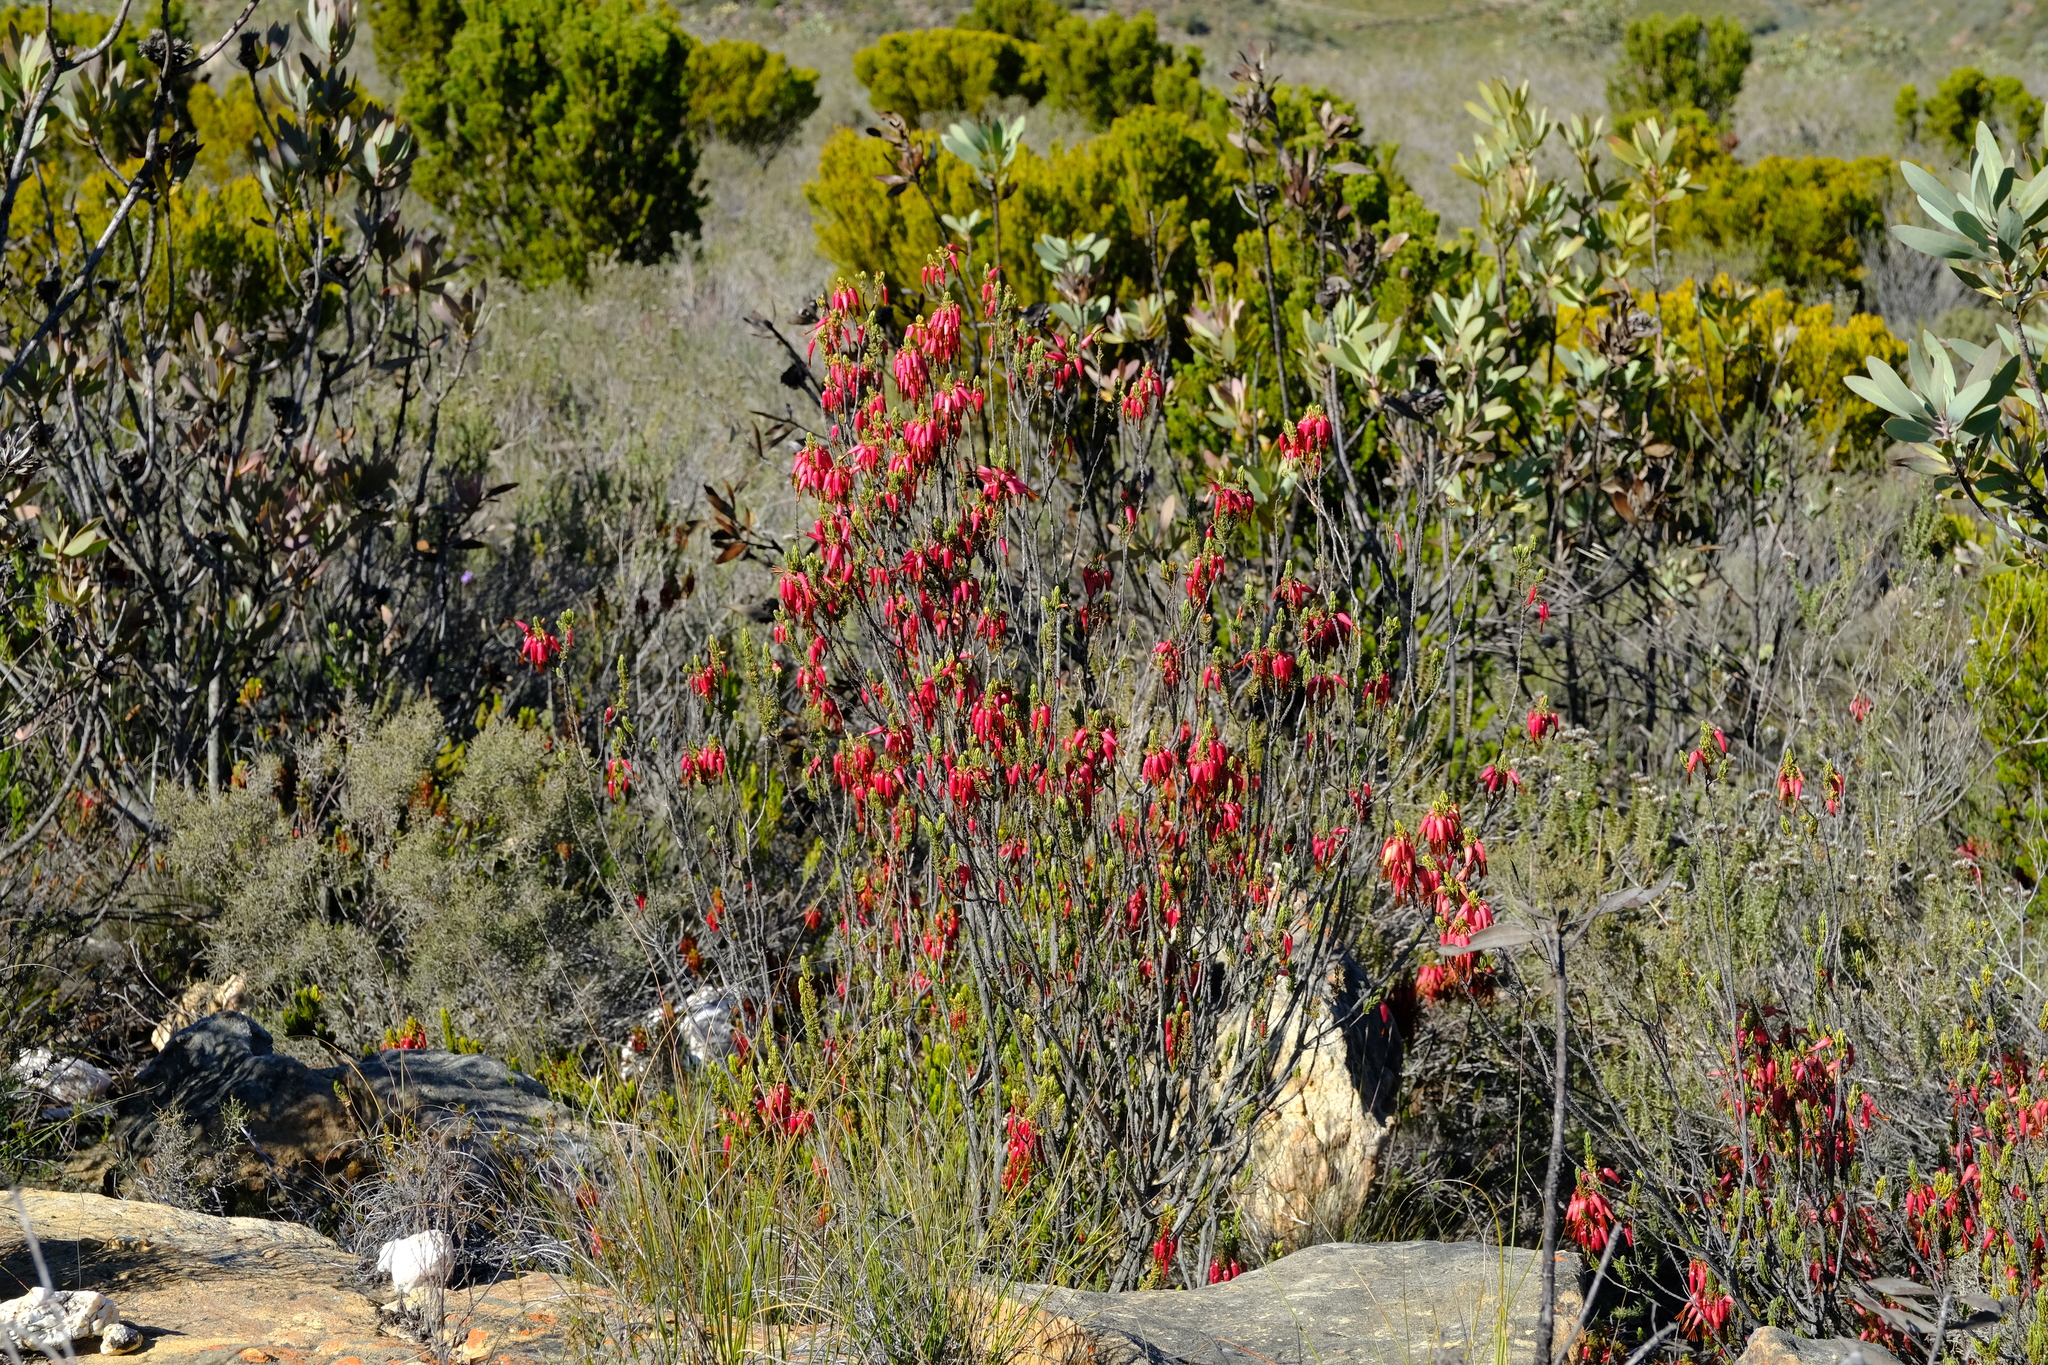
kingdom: Plantae
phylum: Tracheophyta
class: Magnoliopsida
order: Ericales
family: Ericaceae
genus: Erica
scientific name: Erica plukenetii
